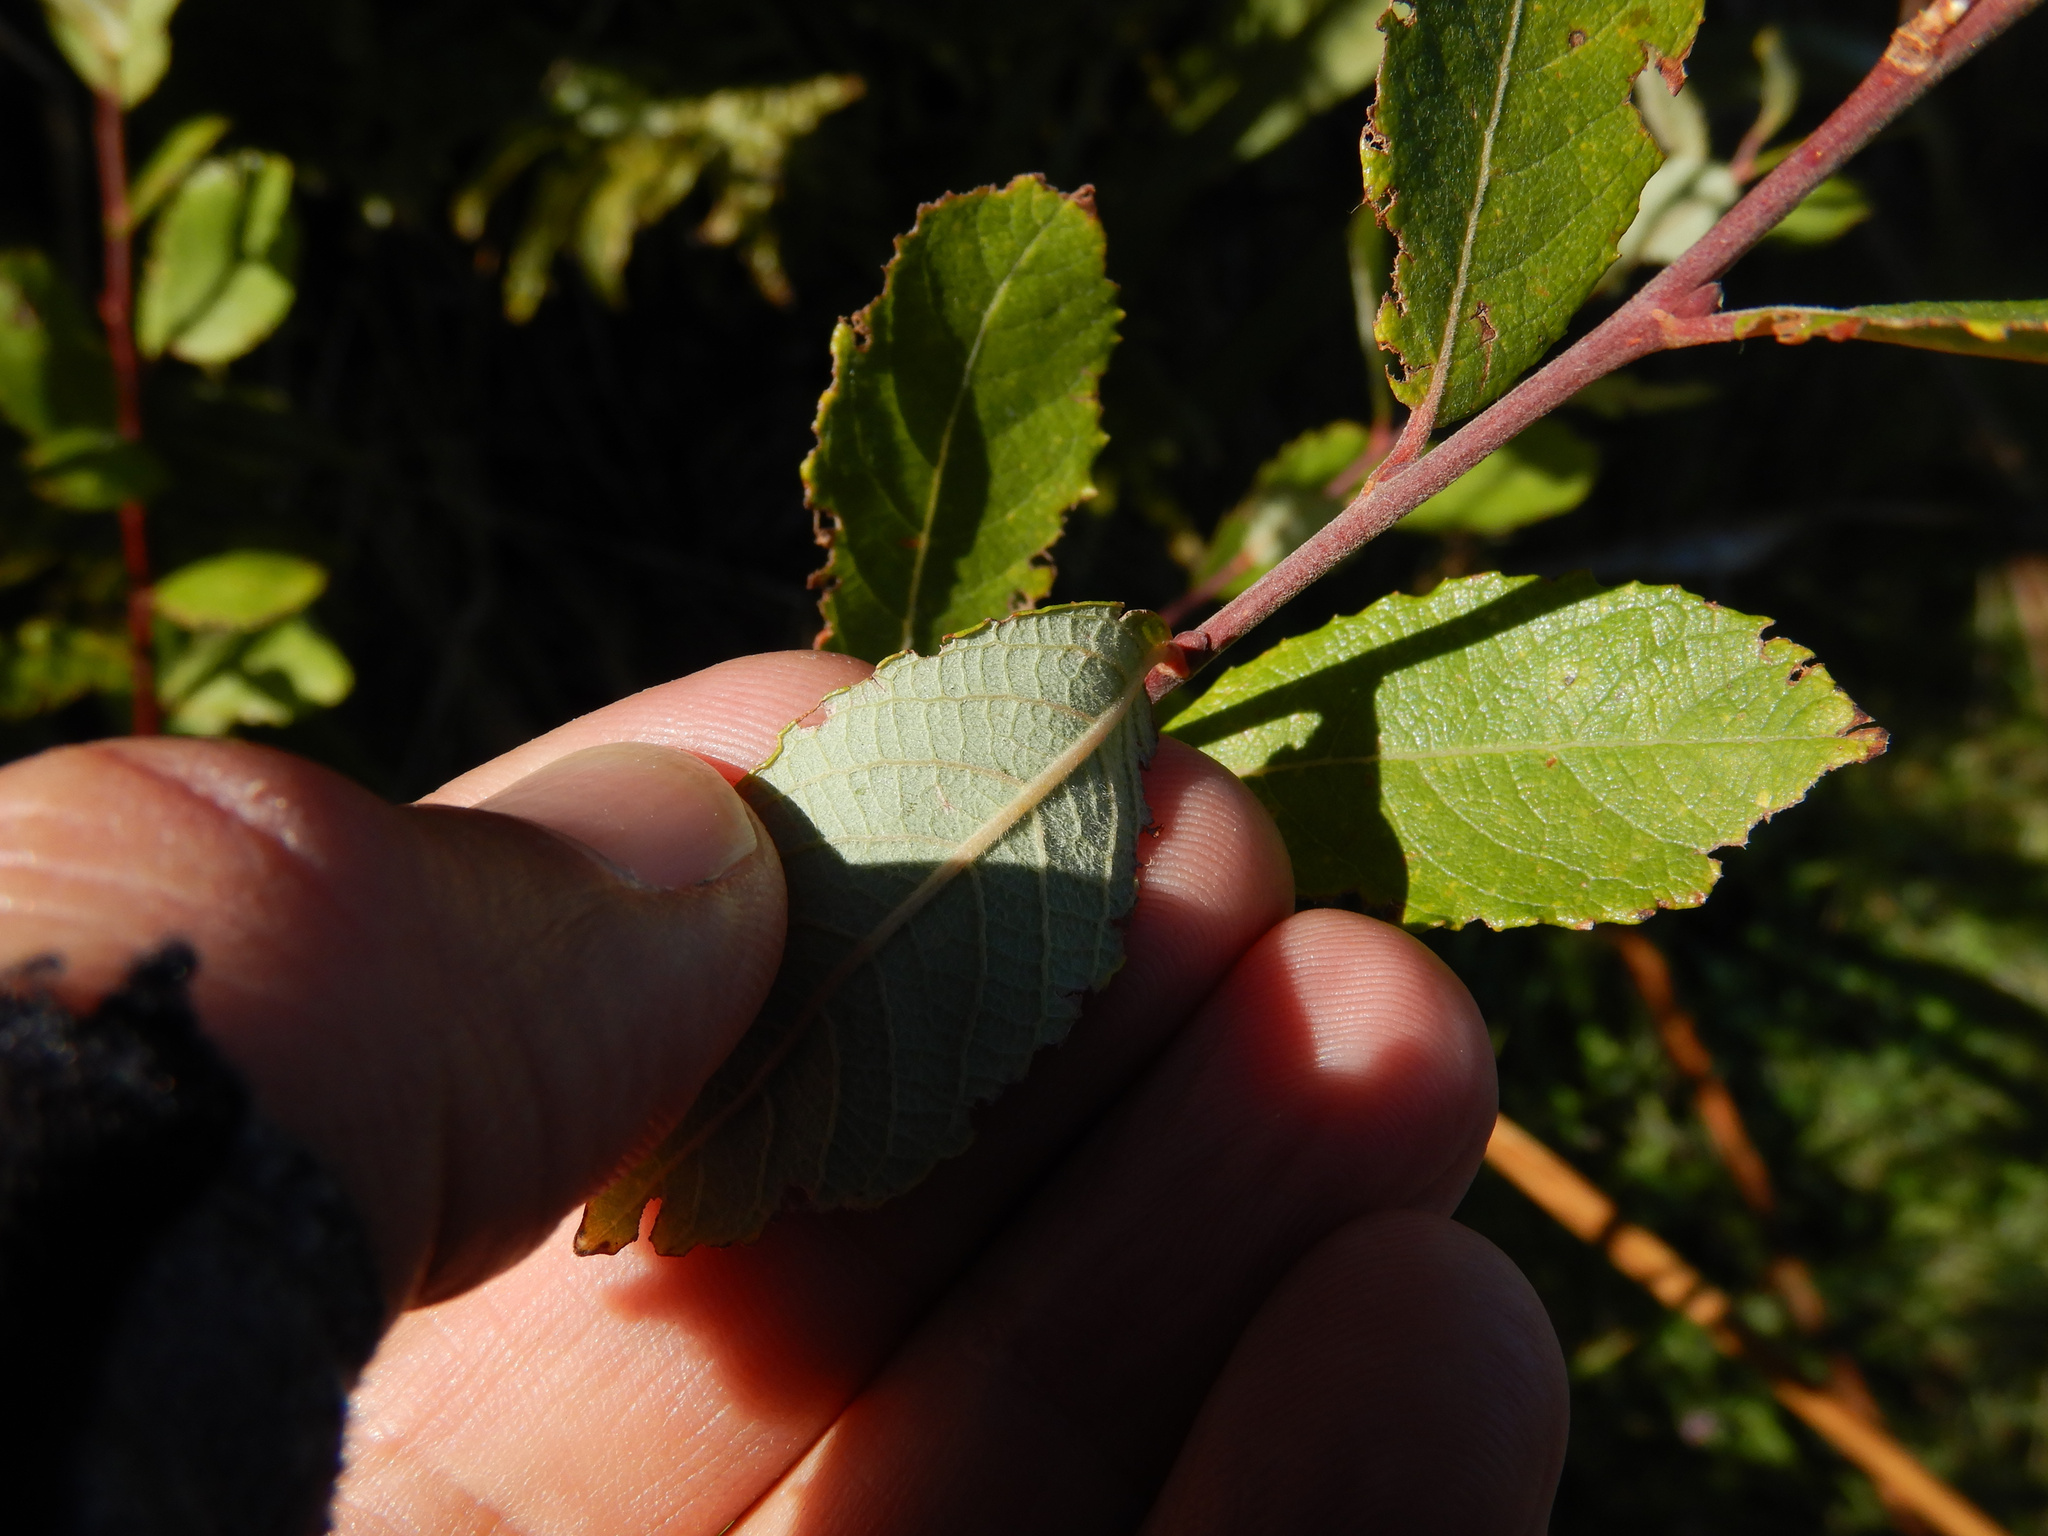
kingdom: Plantae
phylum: Tracheophyta
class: Magnoliopsida
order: Malpighiales
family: Salicaceae
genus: Salix
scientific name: Salix cinerea
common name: Common sallow
